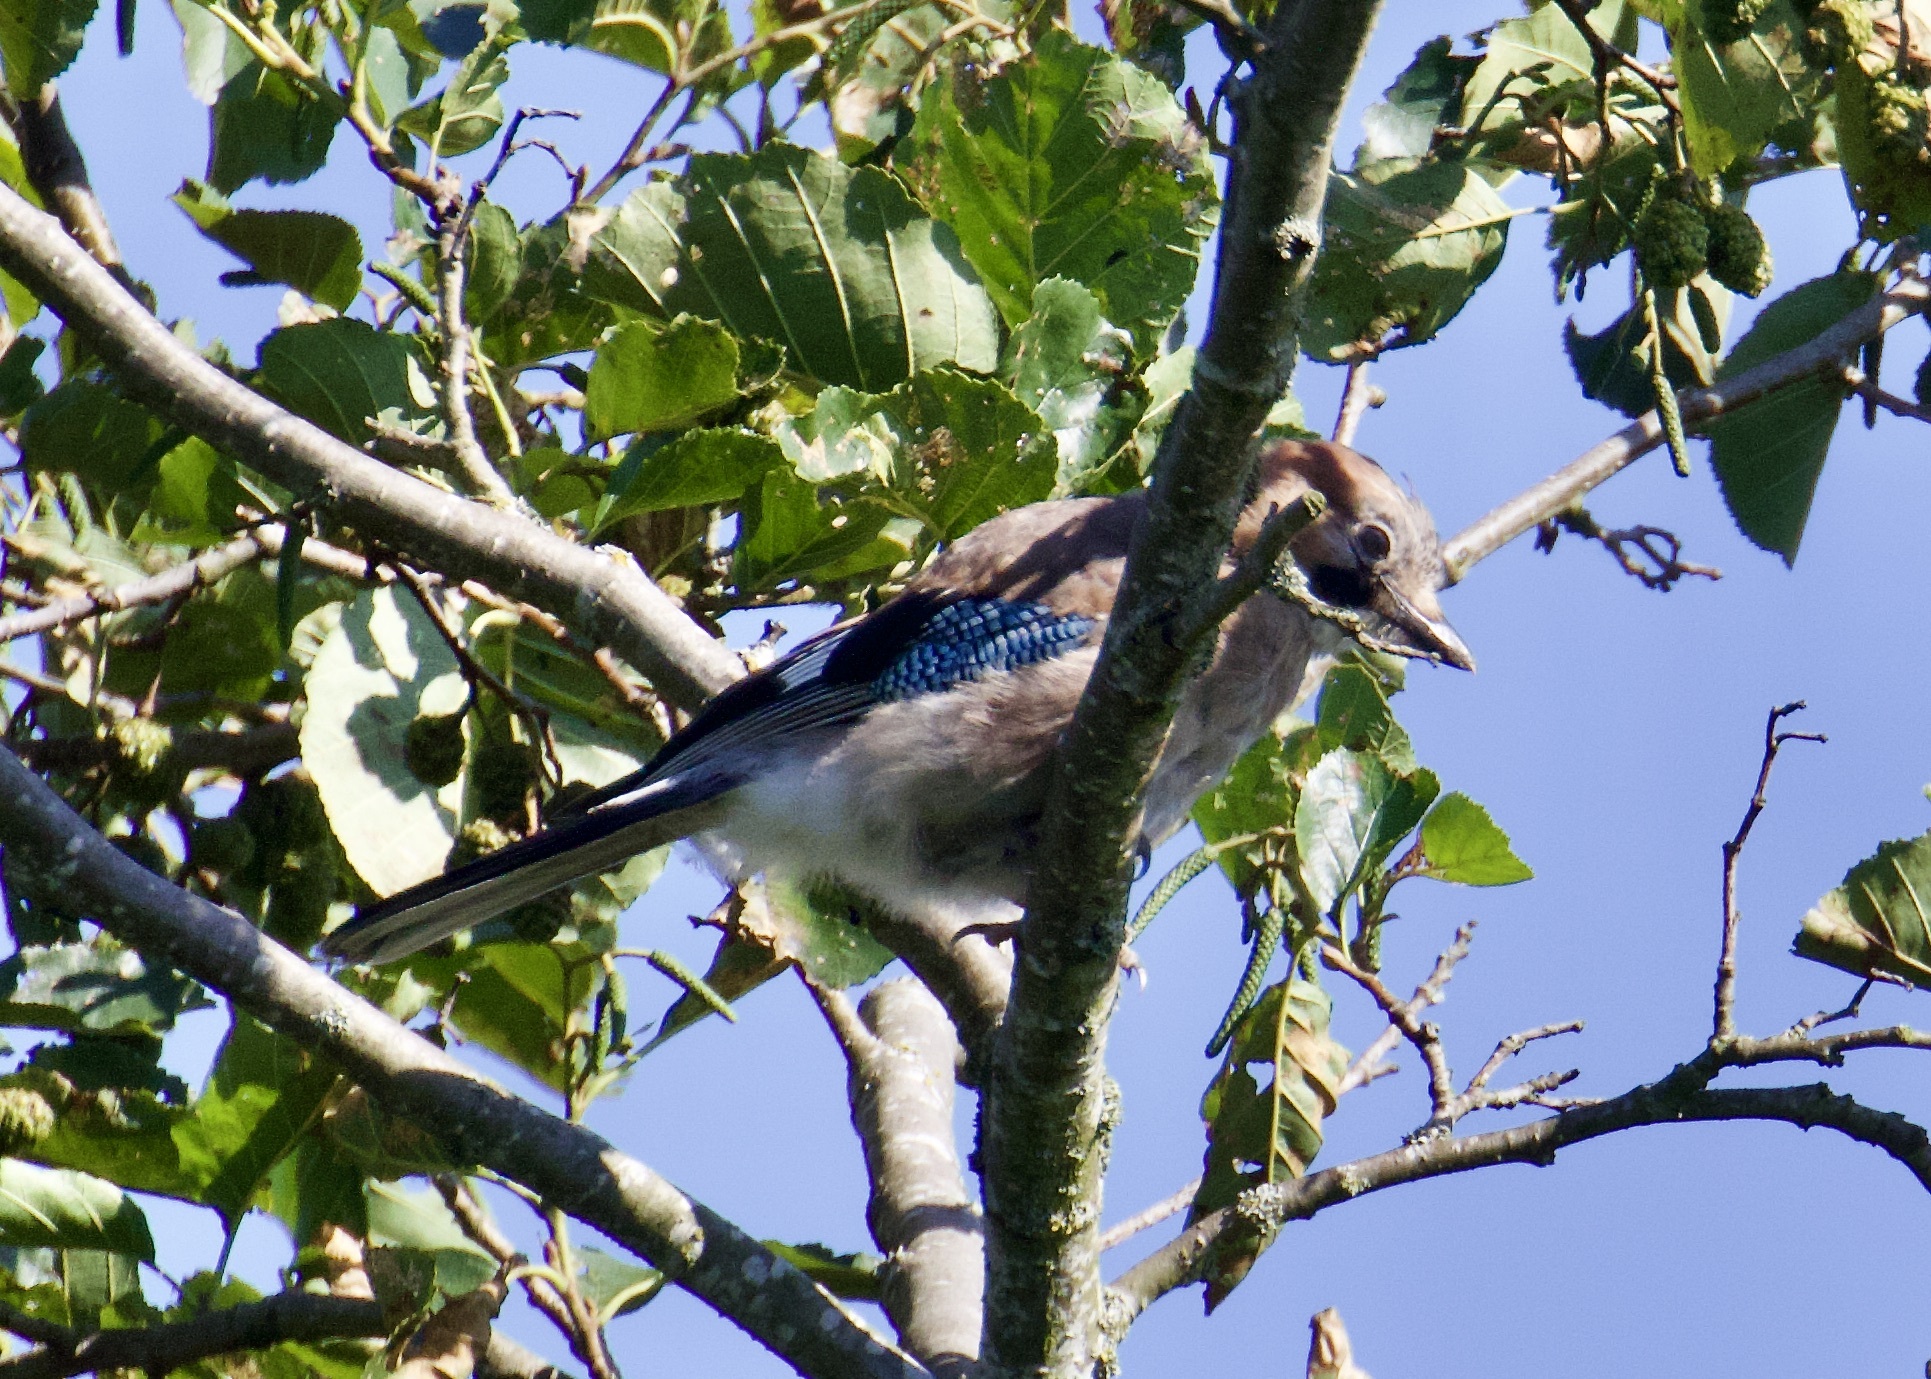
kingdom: Animalia
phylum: Chordata
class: Aves
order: Passeriformes
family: Corvidae
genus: Garrulus
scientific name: Garrulus glandarius
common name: Eurasian jay
